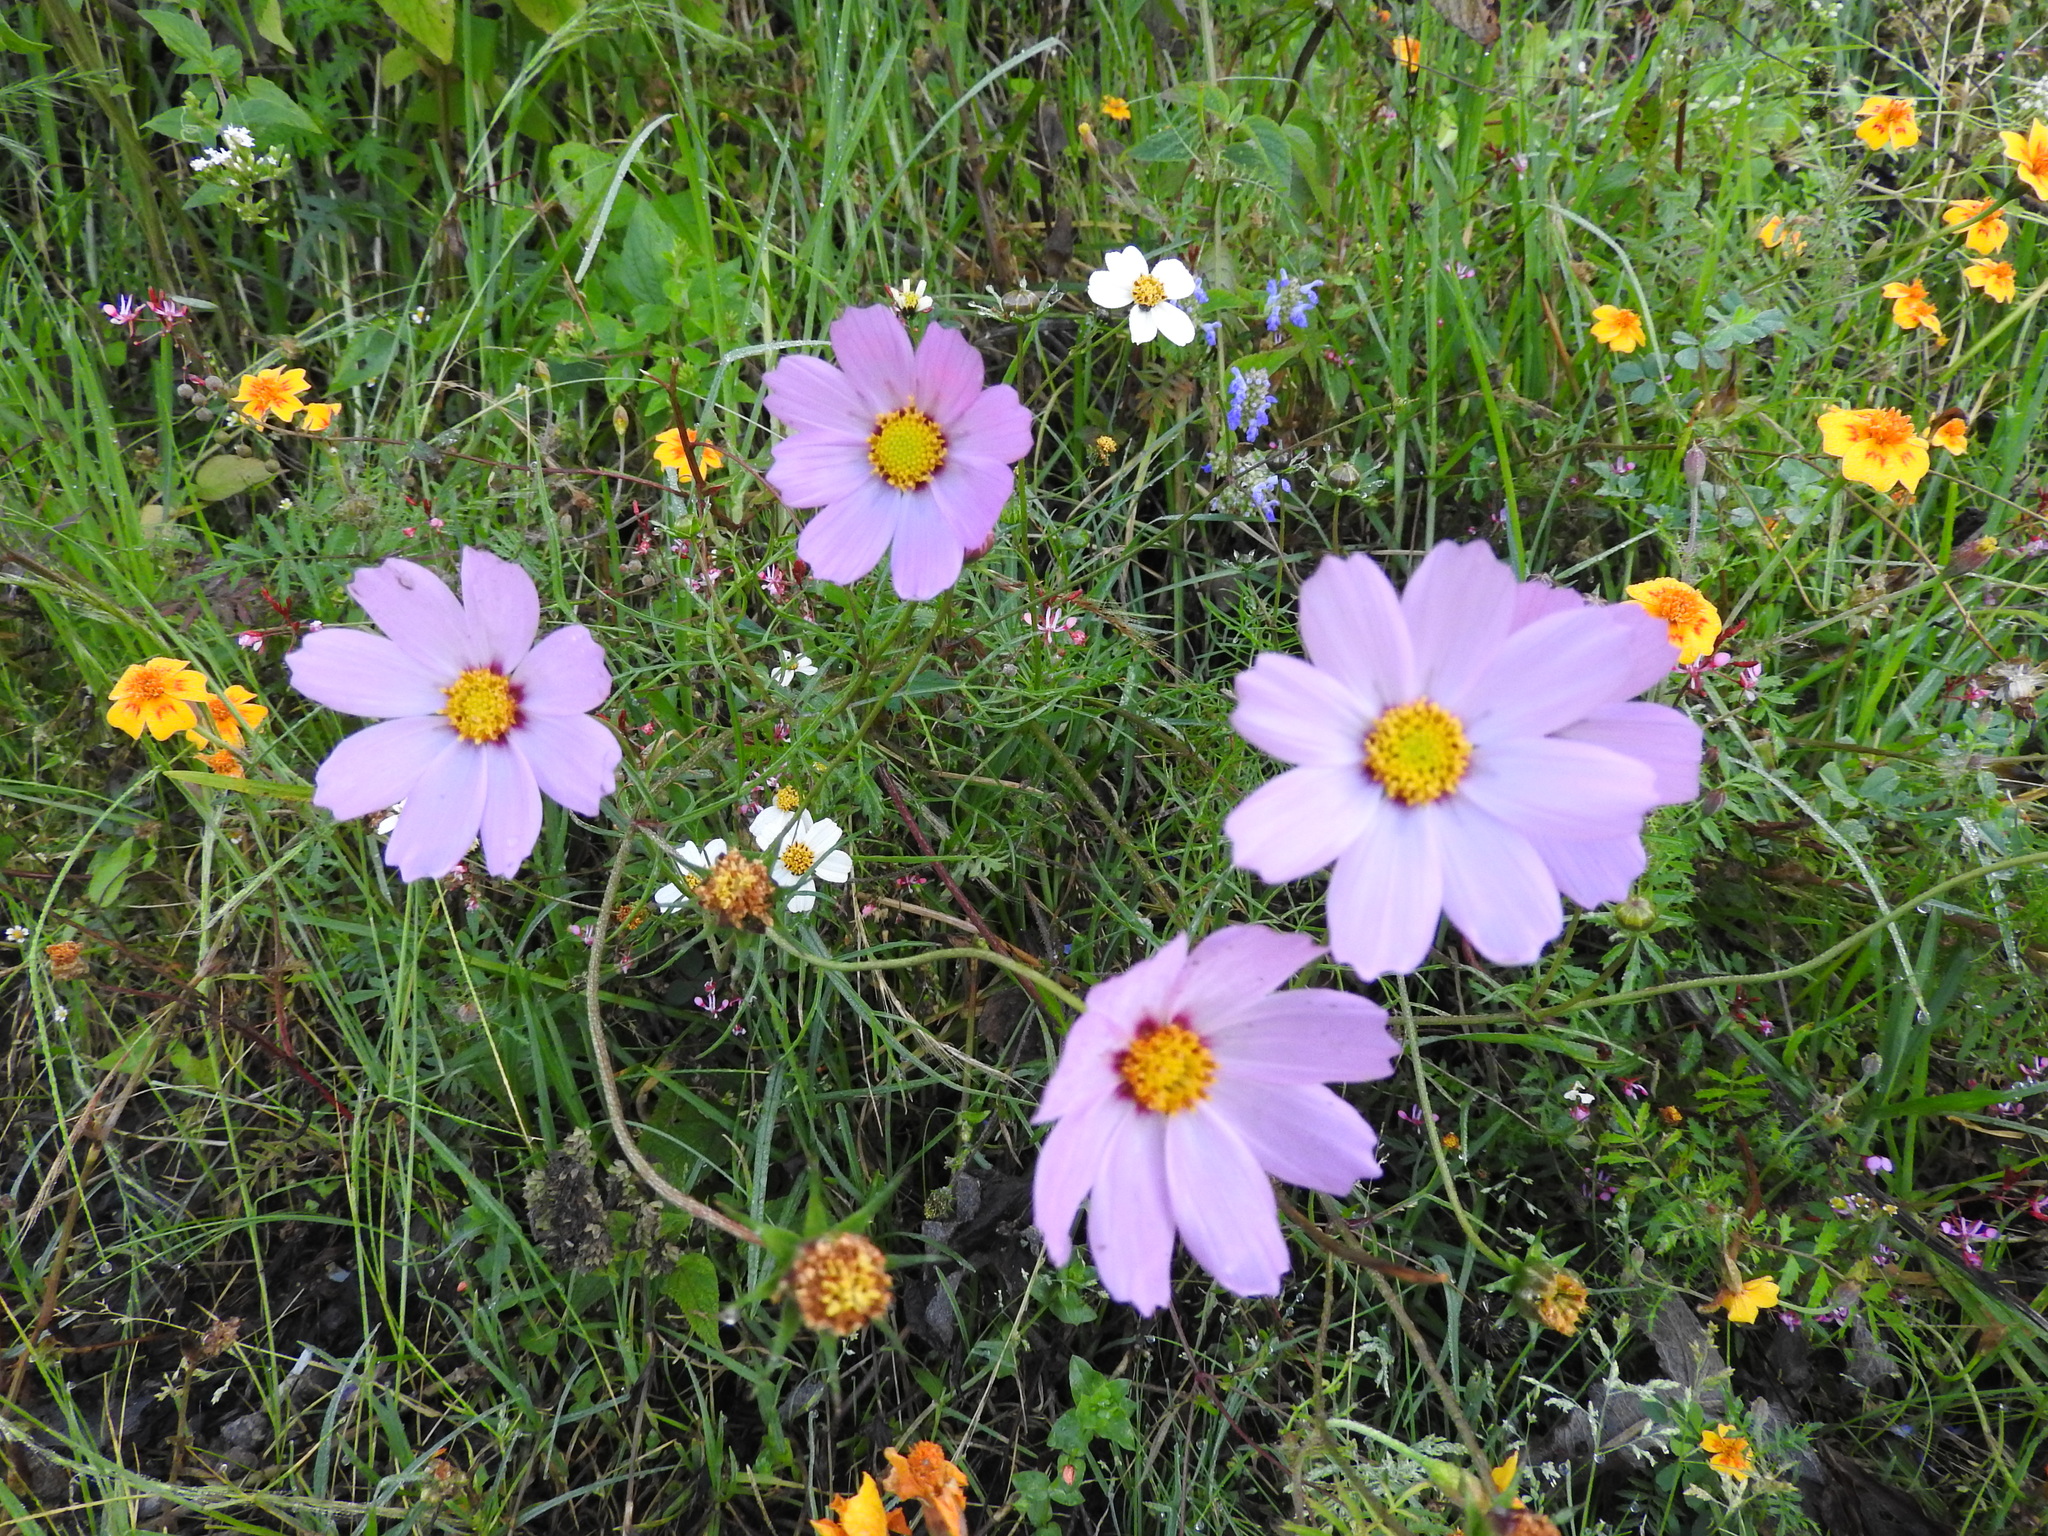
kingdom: Plantae
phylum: Tracheophyta
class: Magnoliopsida
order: Asterales
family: Asteraceae
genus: Cosmos
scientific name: Cosmos bipinnatus
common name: Garden cosmos
